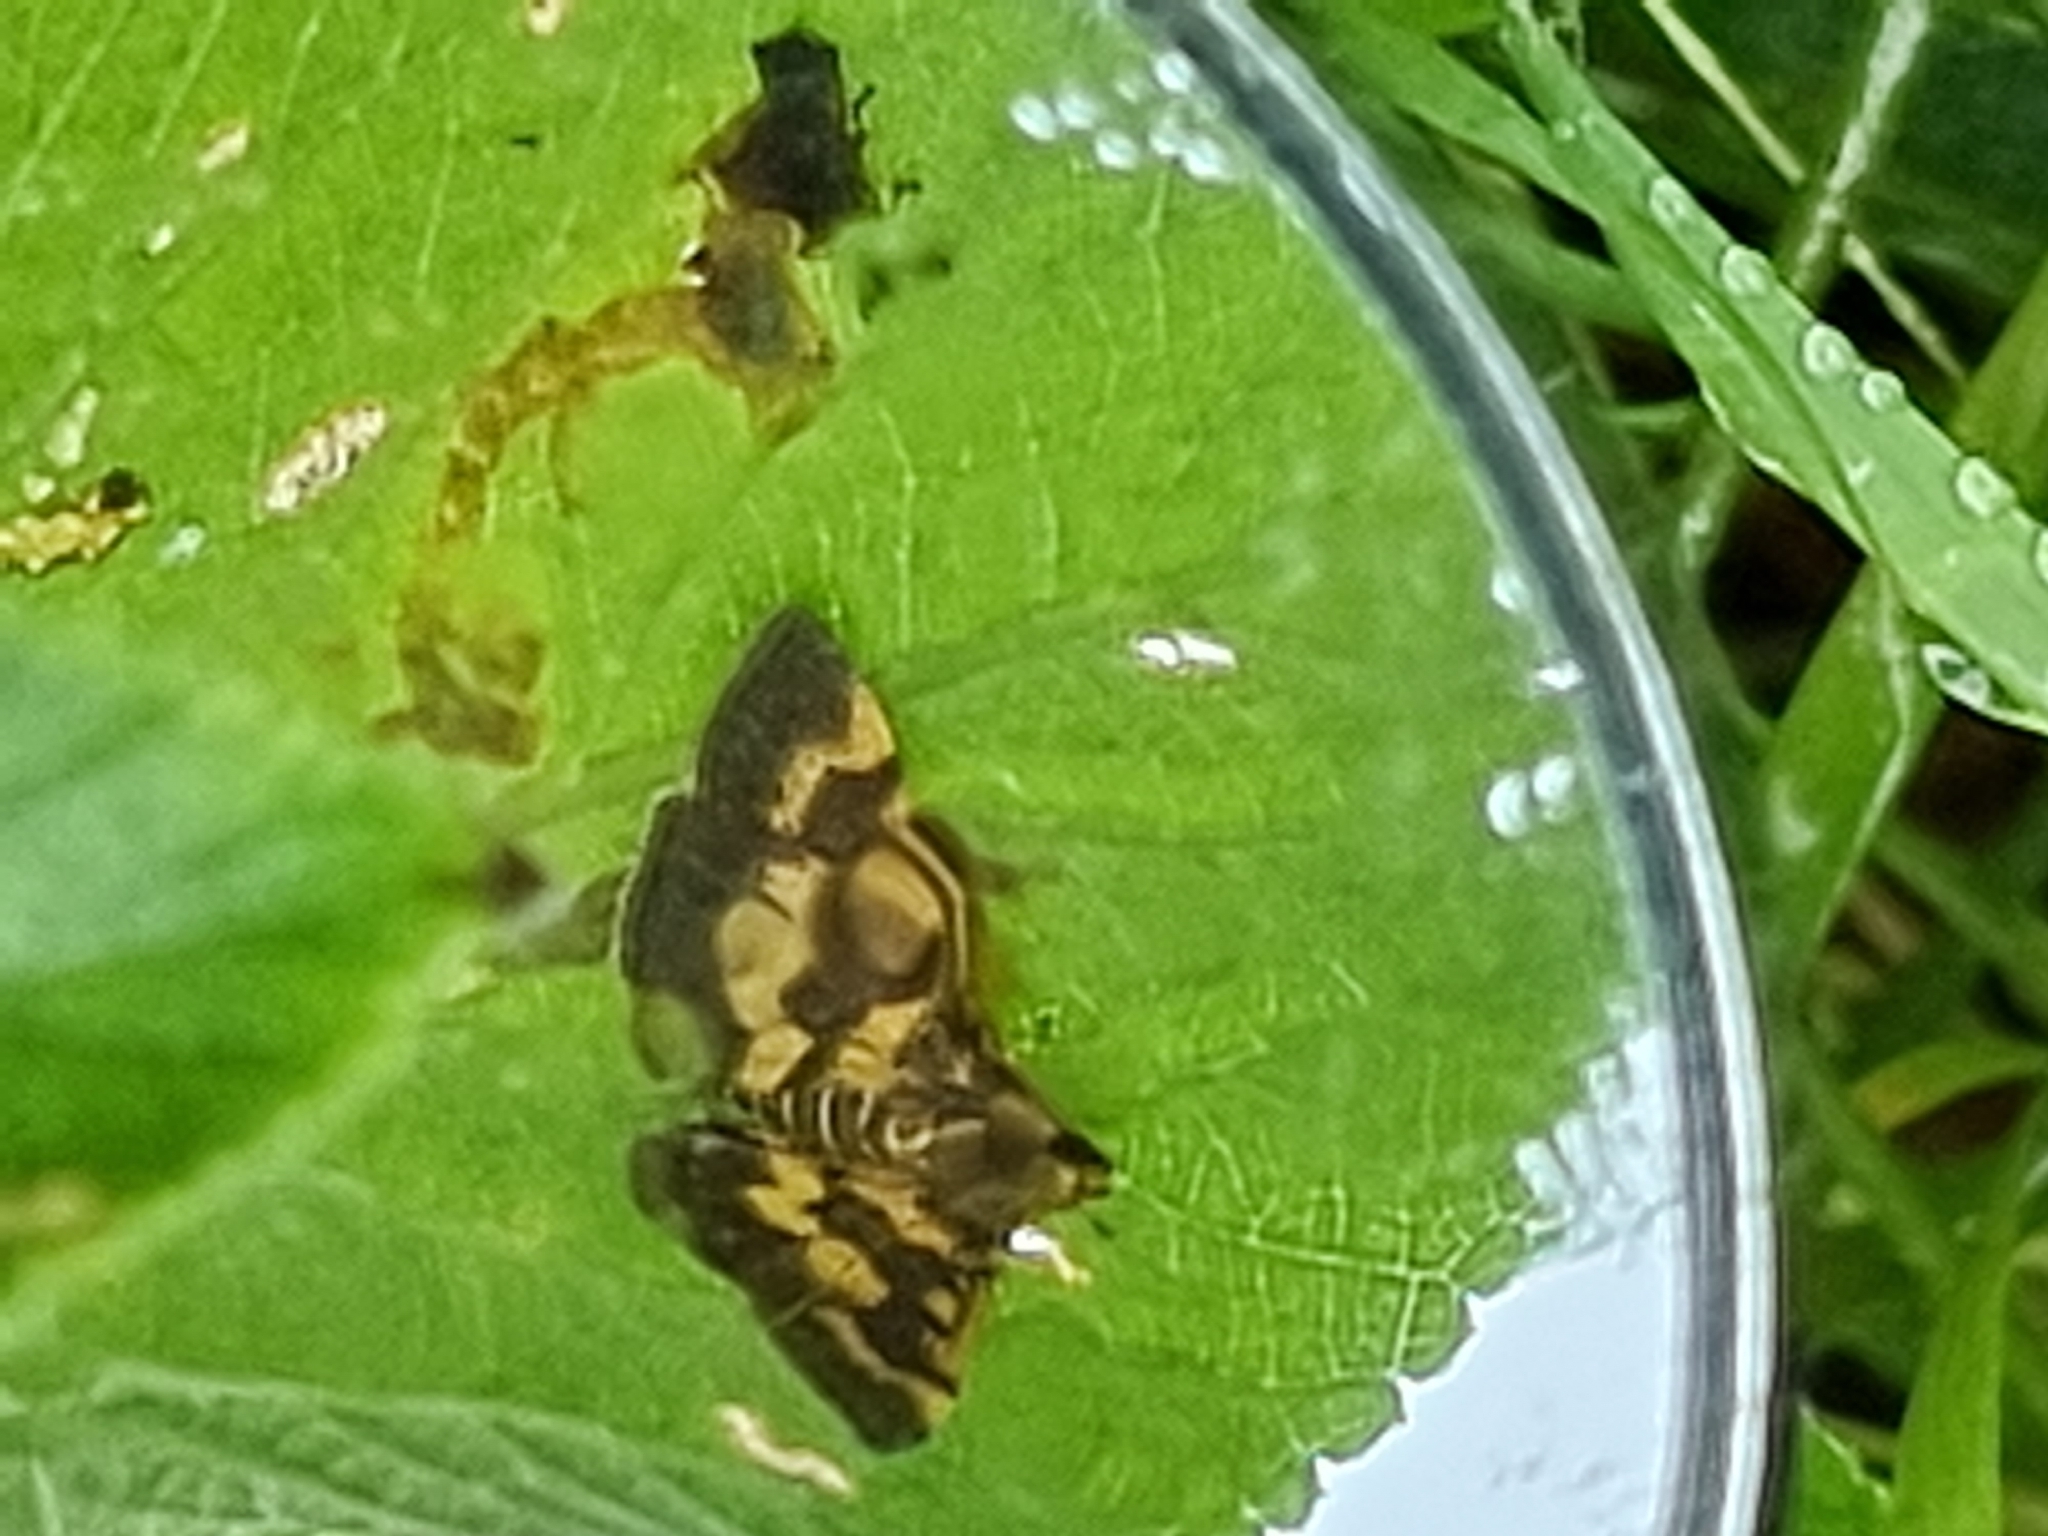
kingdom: Animalia
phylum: Arthropoda
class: Insecta
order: Lepidoptera
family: Crambidae
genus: Omiodes
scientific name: Omiodes diemenalis
